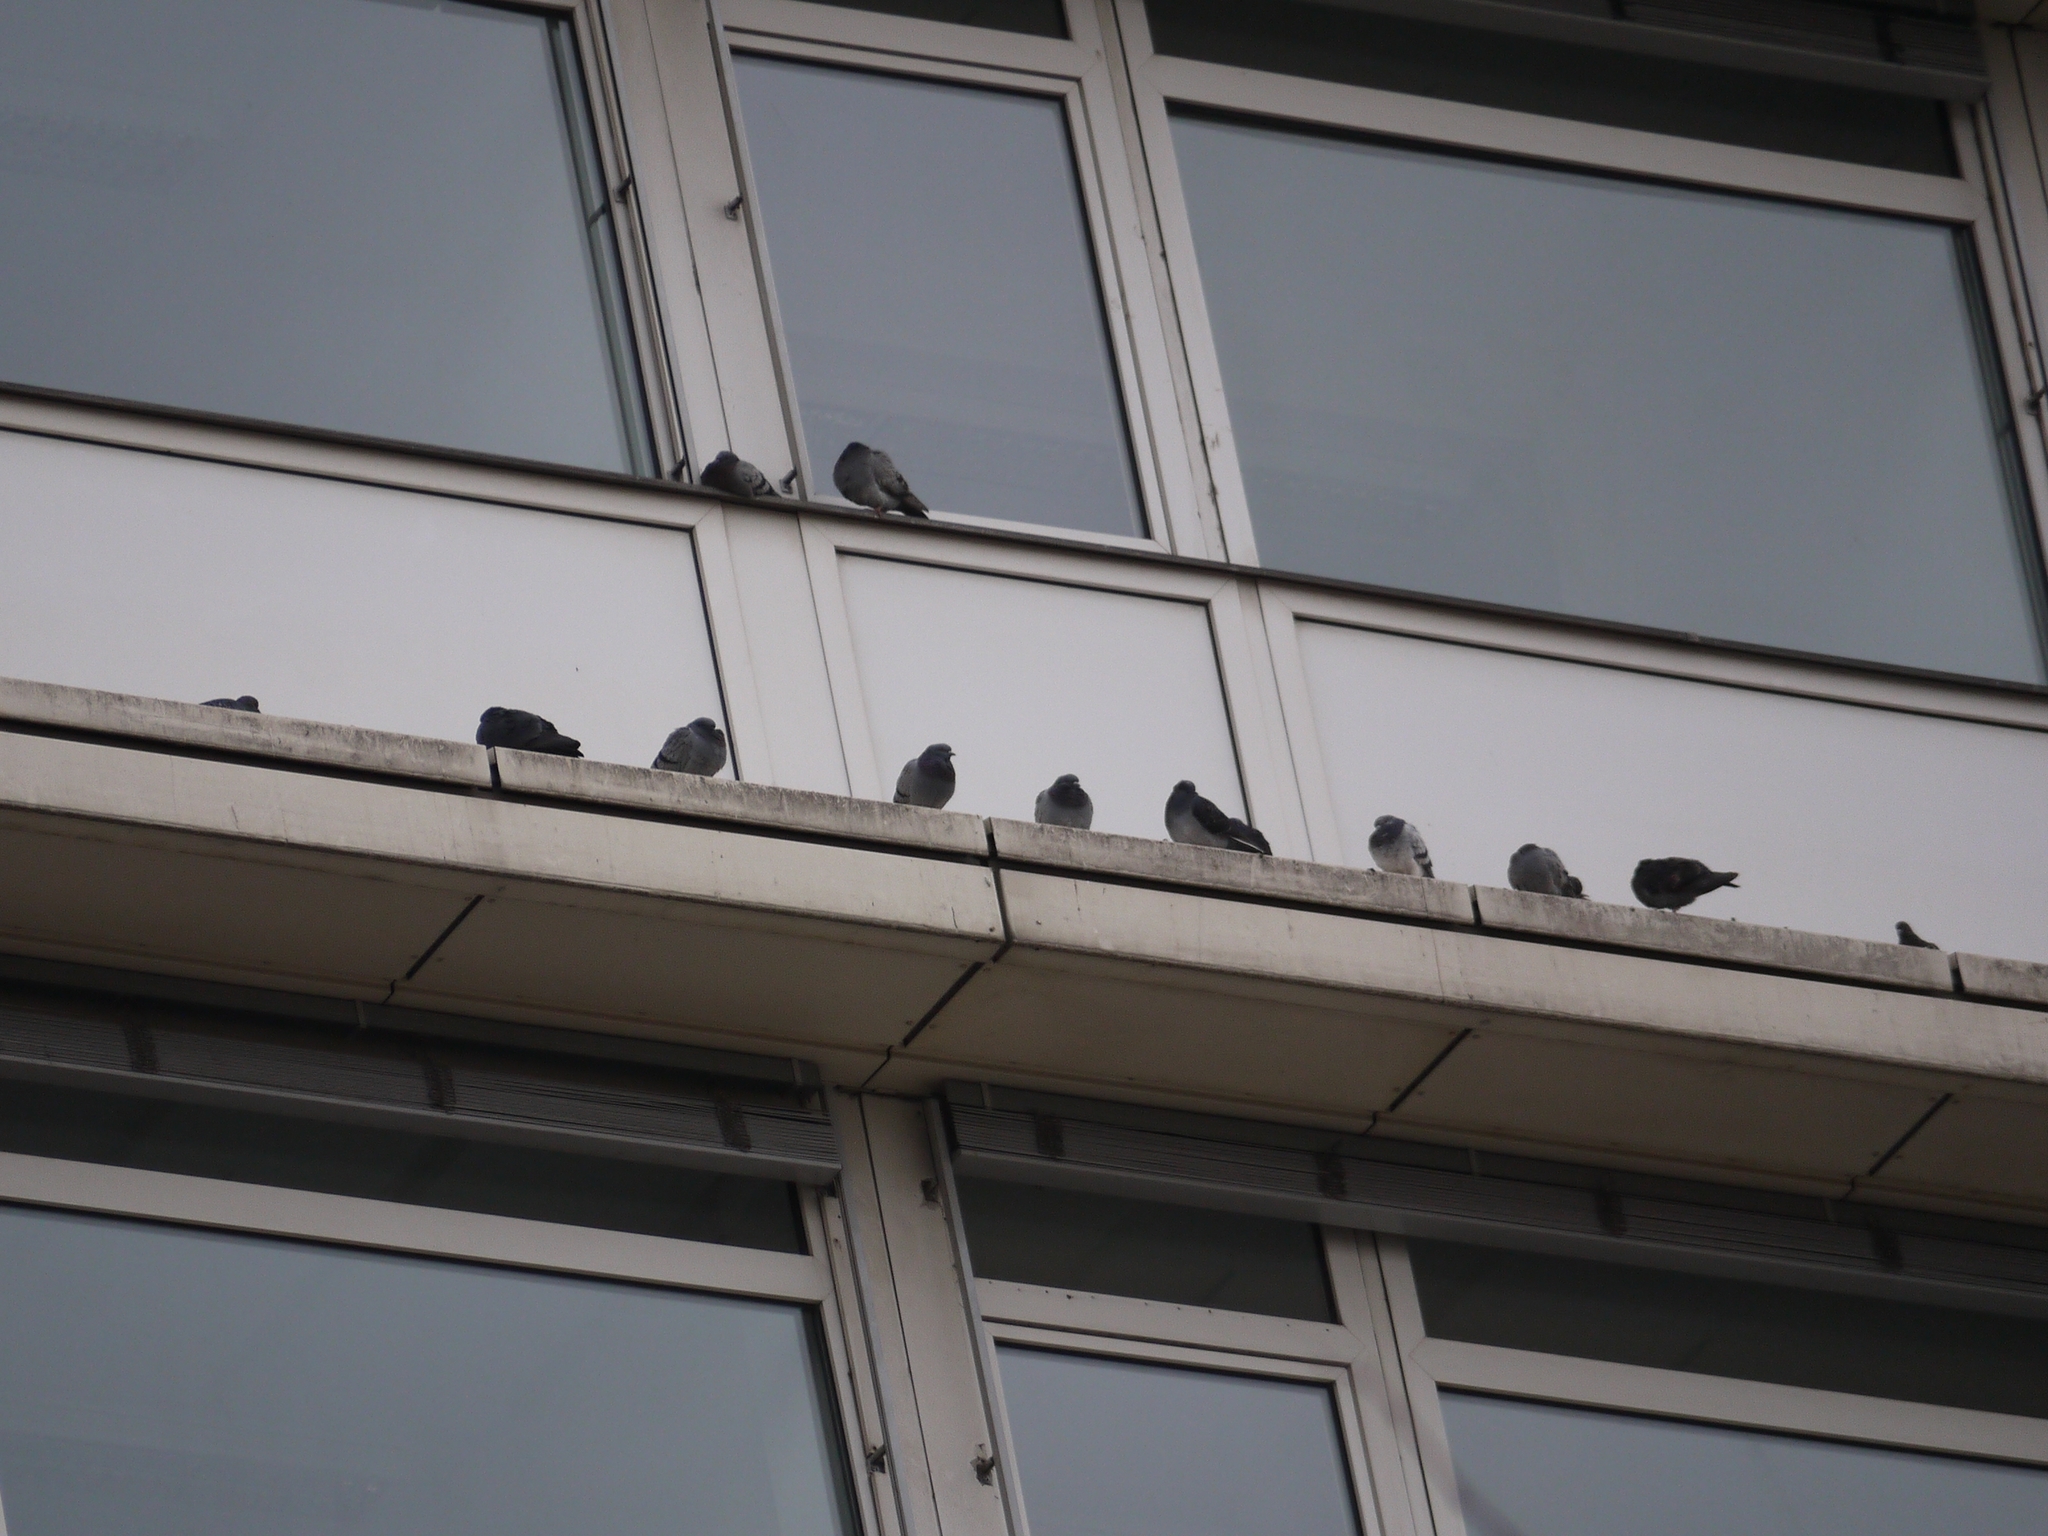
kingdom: Animalia
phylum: Chordata
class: Aves
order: Columbiformes
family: Columbidae
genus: Columba
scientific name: Columba livia
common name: Rock pigeon
